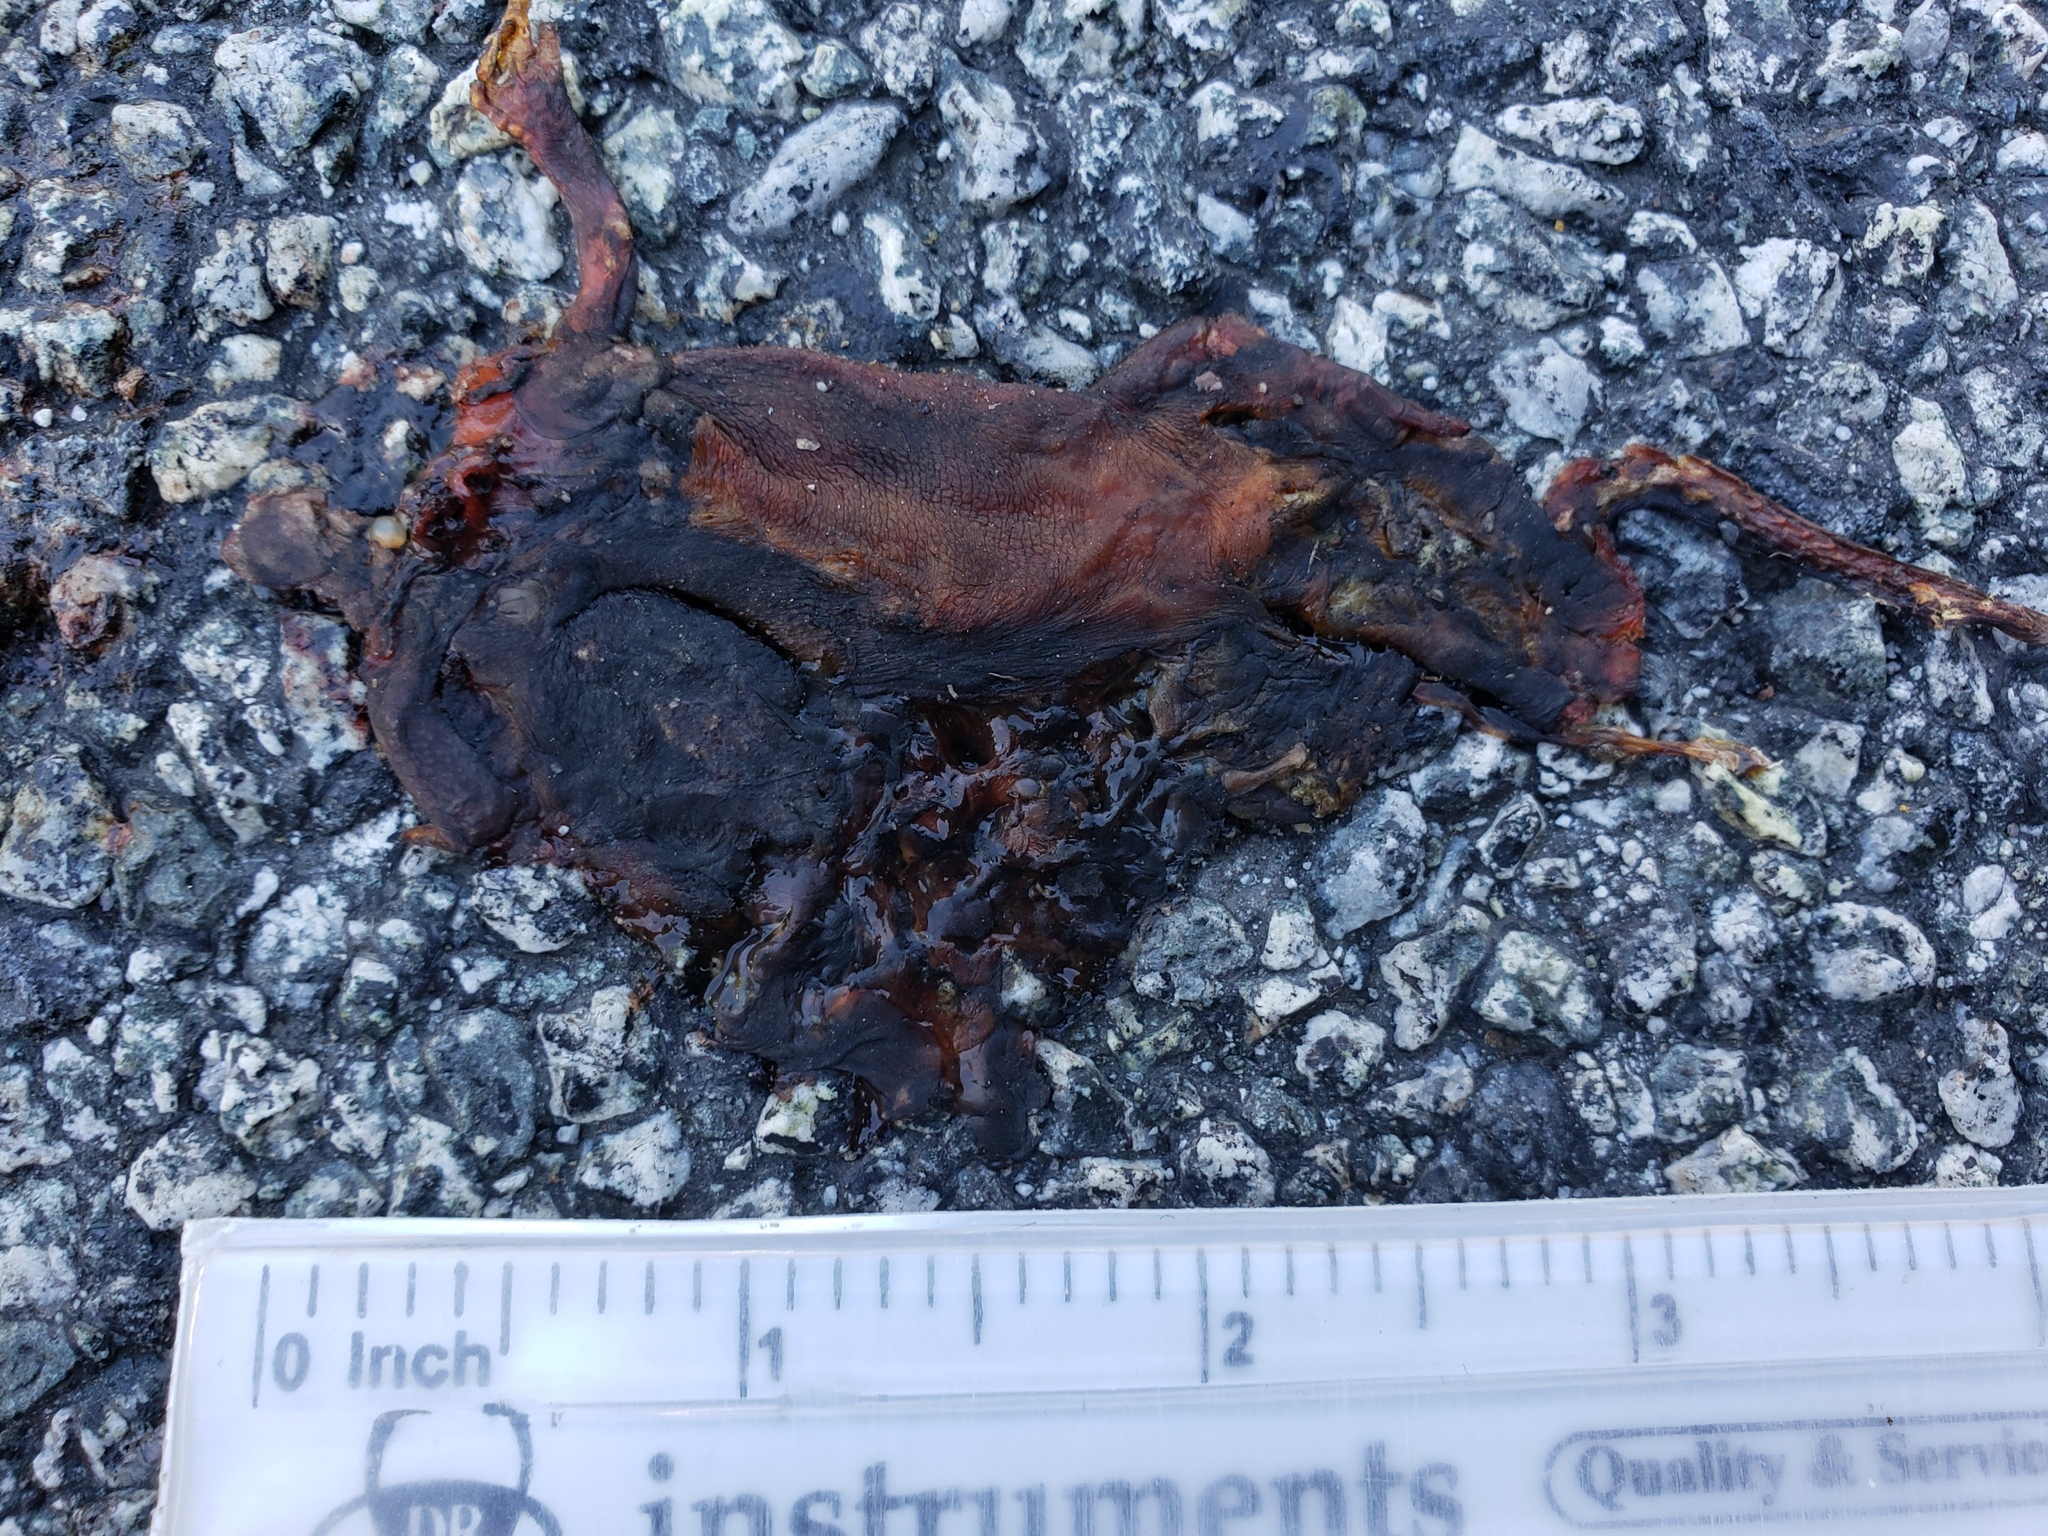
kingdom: Animalia
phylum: Chordata
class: Amphibia
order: Caudata
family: Salamandridae
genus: Taricha
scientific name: Taricha
